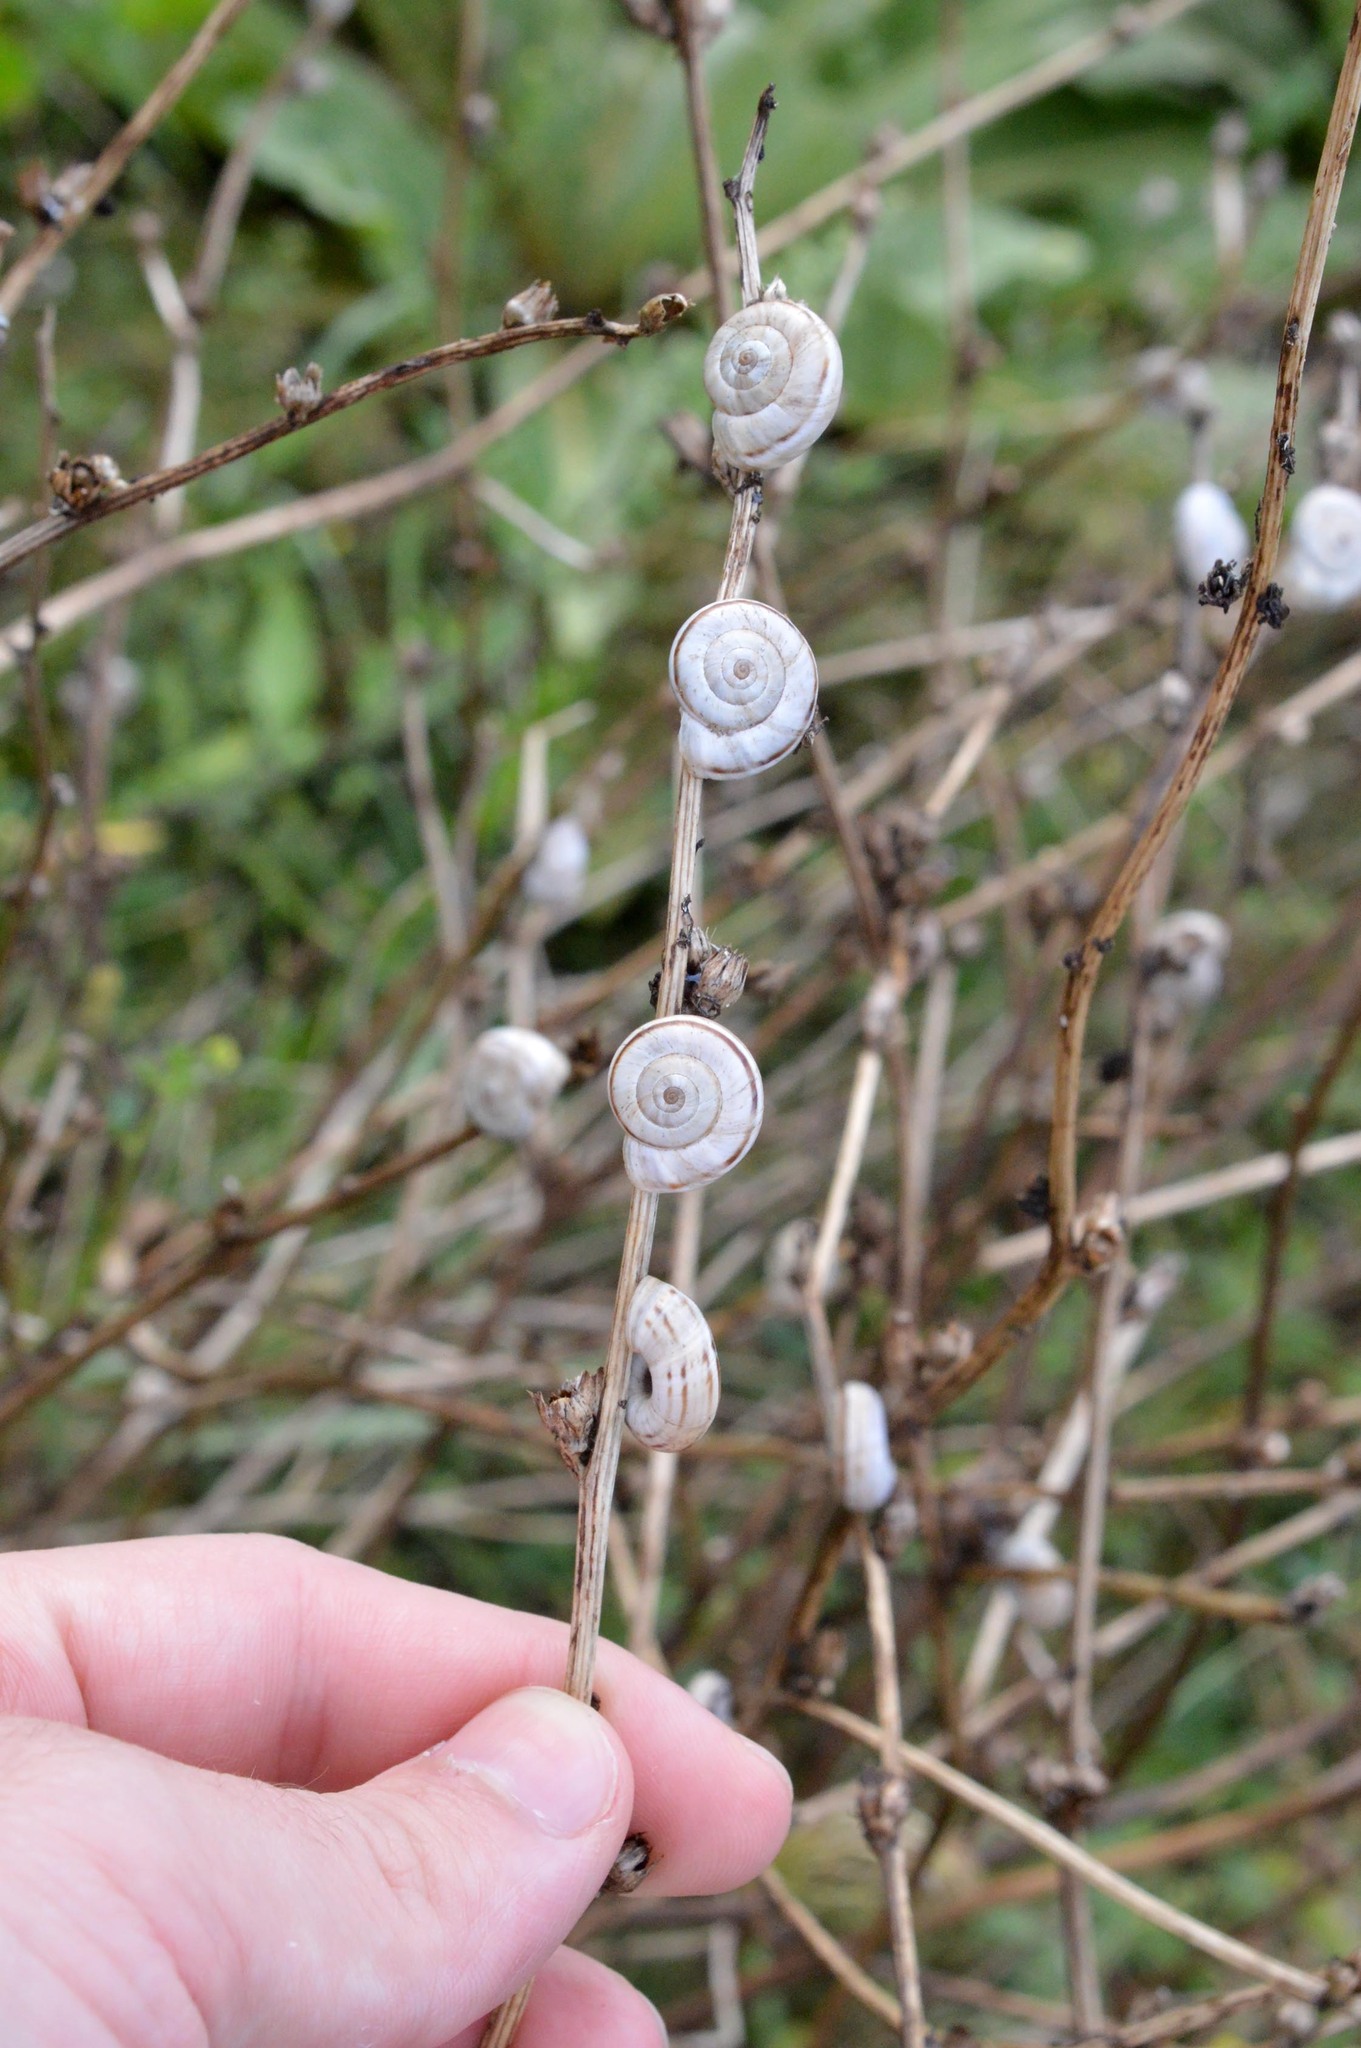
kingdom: Animalia
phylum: Mollusca
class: Gastropoda
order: Stylommatophora
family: Geomitridae
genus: Xerolenta
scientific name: Xerolenta obvia
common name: White heath snail
